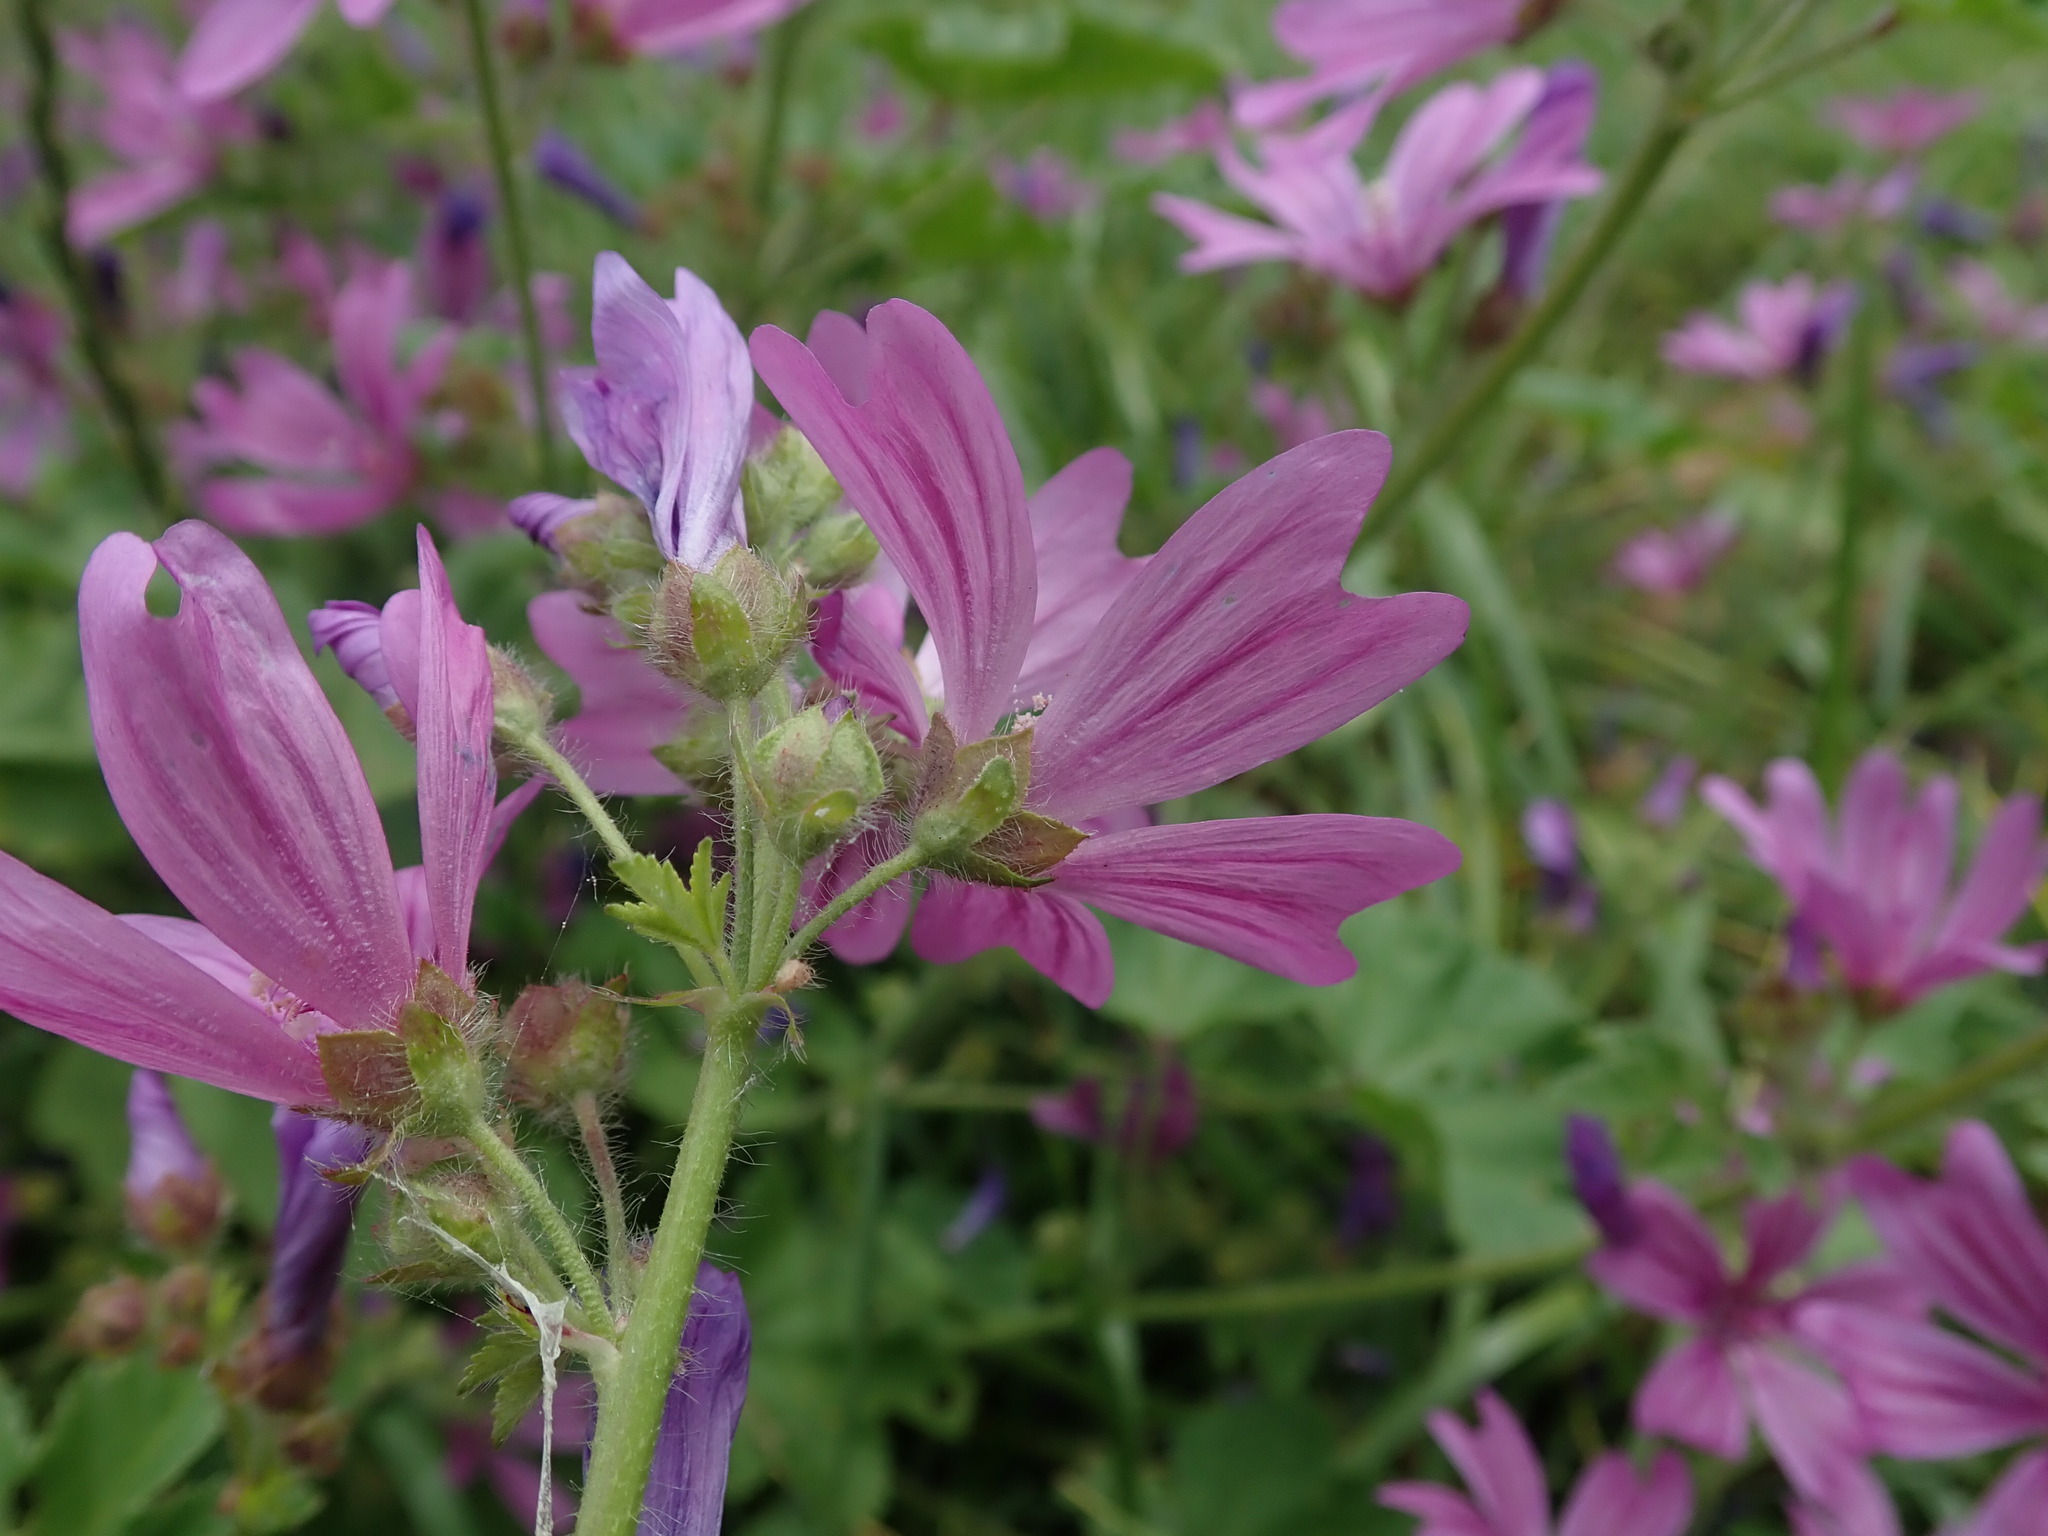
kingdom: Plantae
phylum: Tracheophyta
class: Magnoliopsida
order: Malvales
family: Malvaceae
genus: Malva
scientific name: Malva sylvestris
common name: Common mallow
